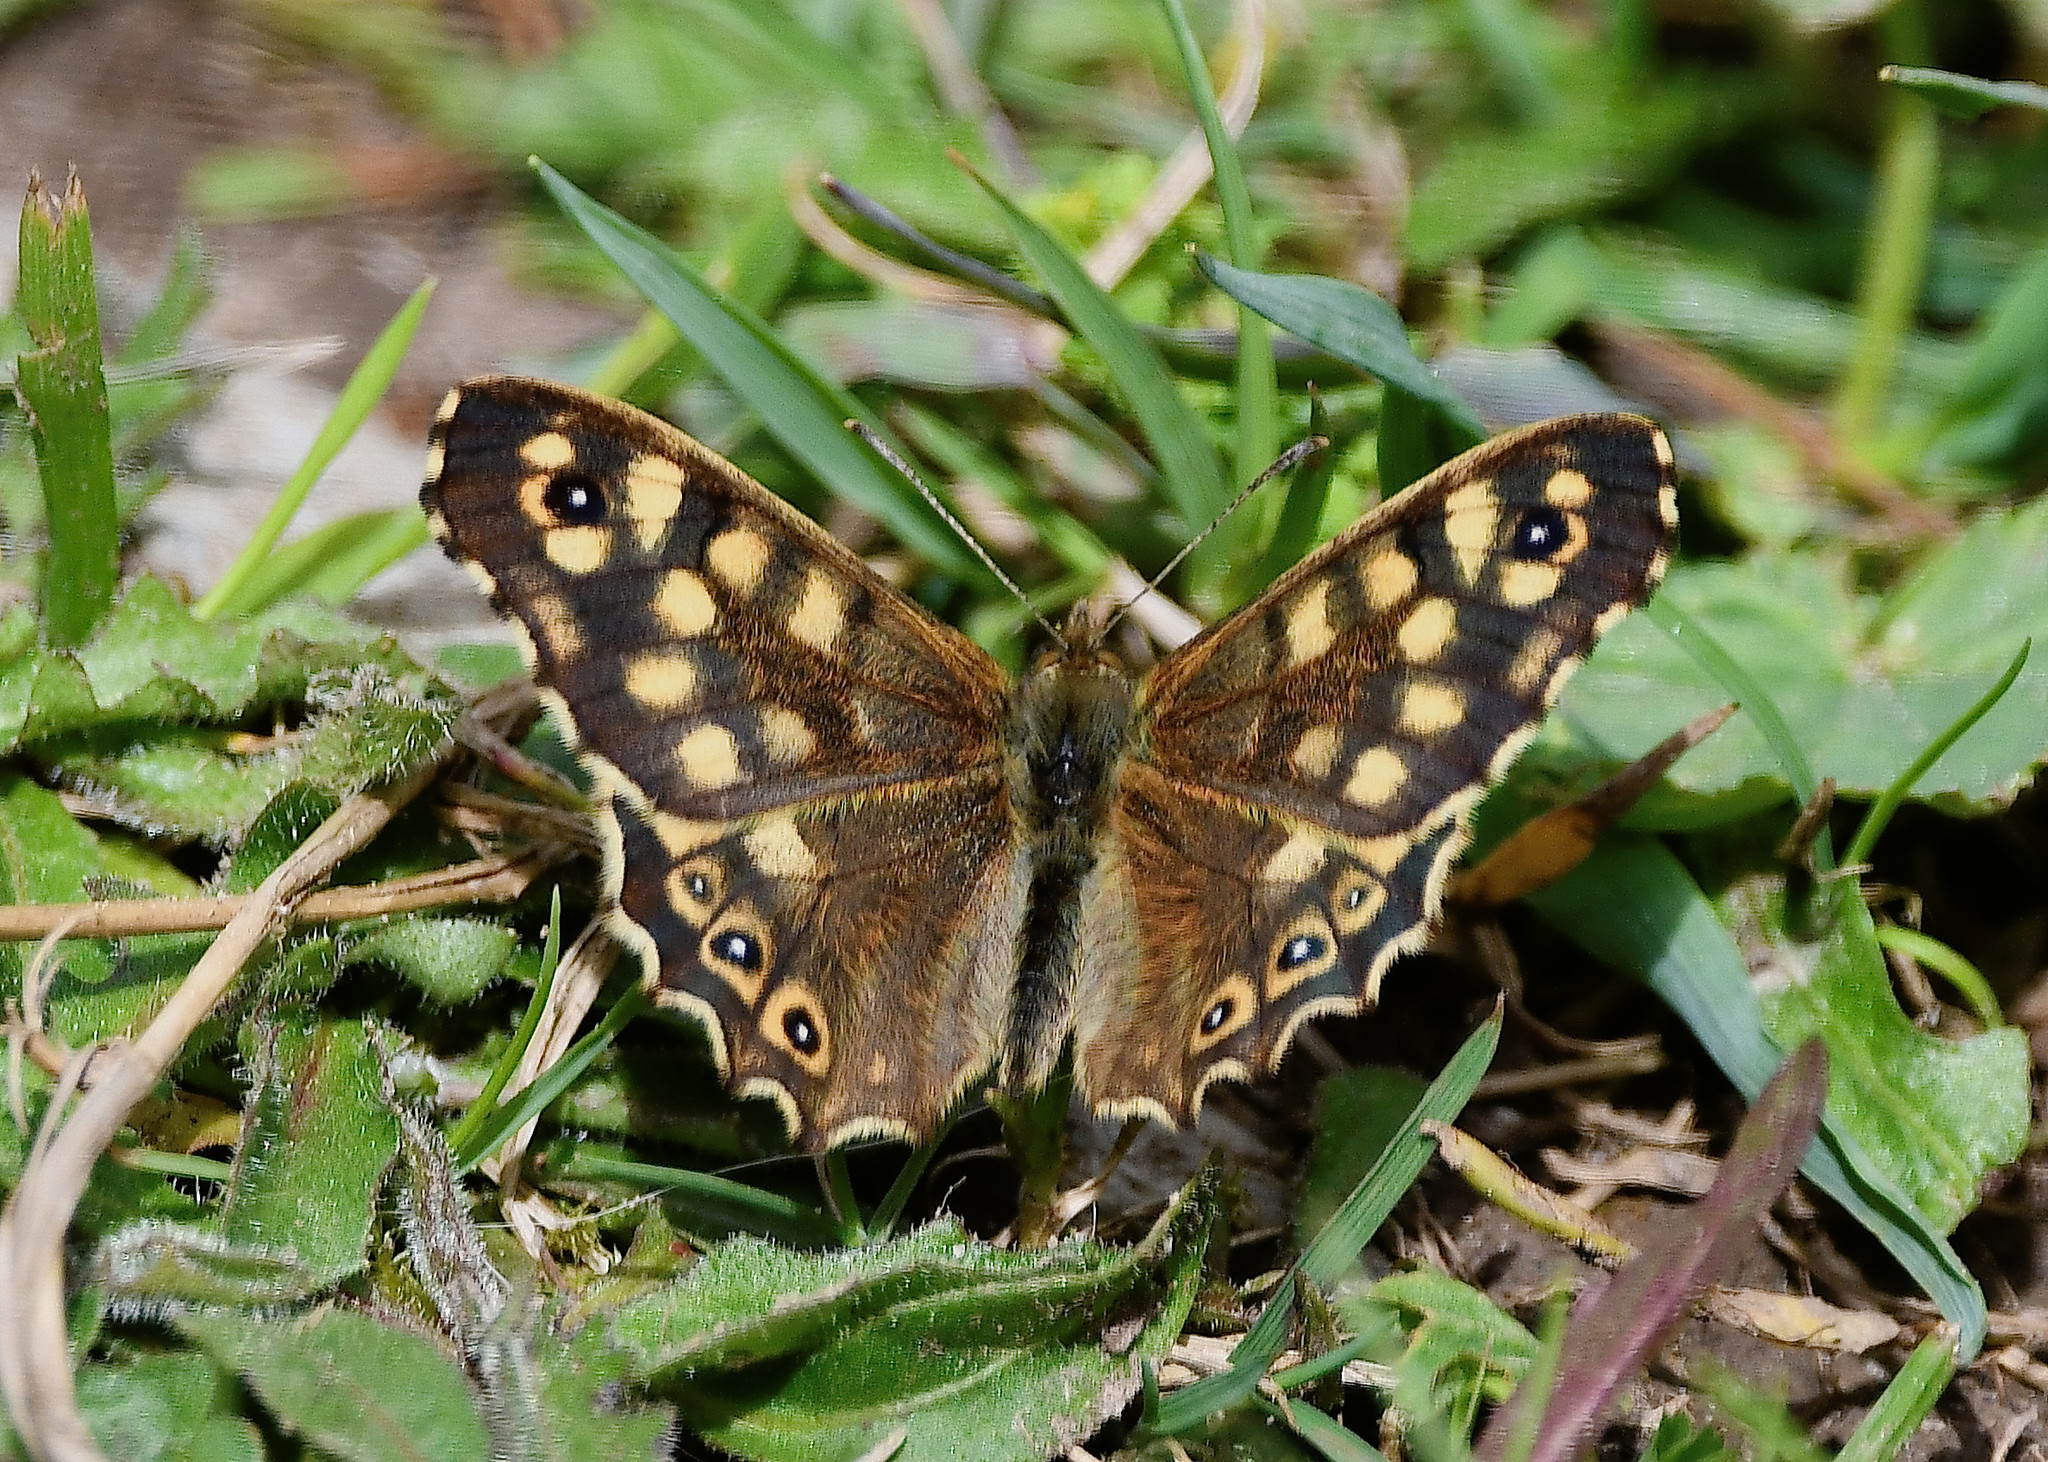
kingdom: Animalia
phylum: Arthropoda
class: Insecta
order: Lepidoptera
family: Nymphalidae
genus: Pararge
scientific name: Pararge aegeria
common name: Speckled wood
